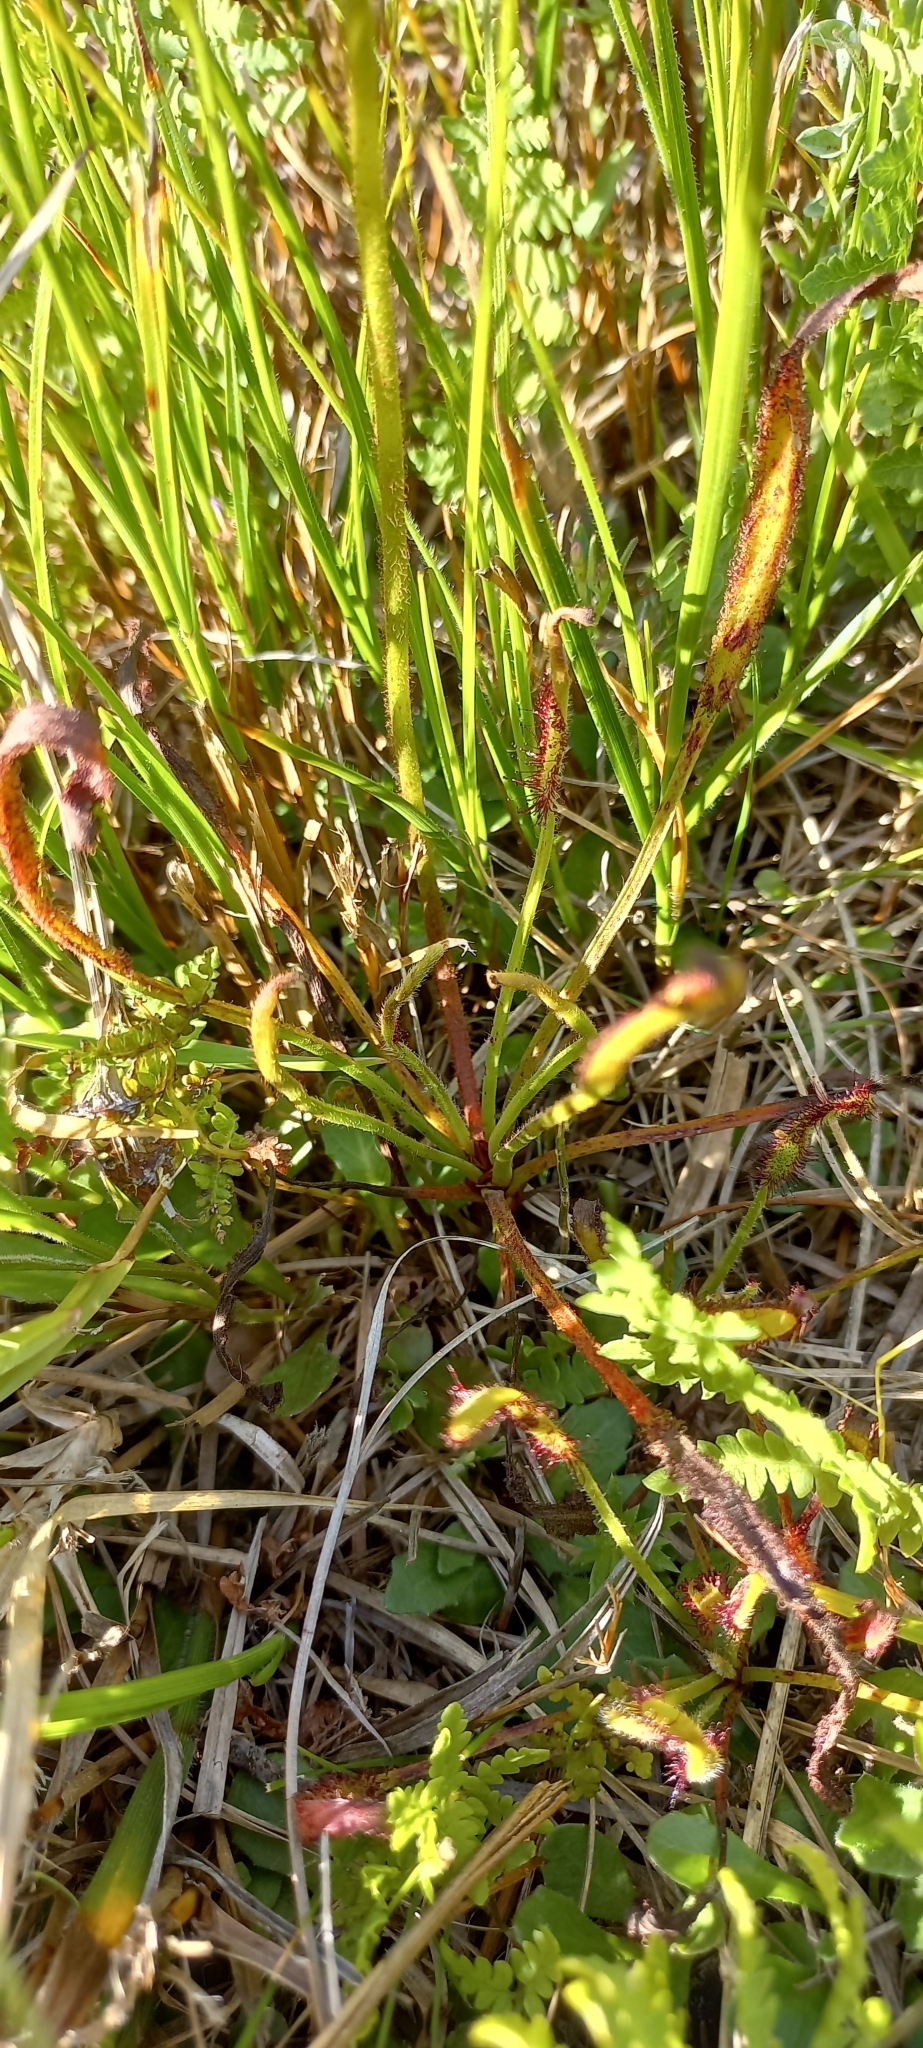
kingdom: Plantae
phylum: Tracheophyta
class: Magnoliopsida
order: Caryophyllales
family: Droseraceae
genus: Drosera
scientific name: Drosera capensis
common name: Cape sundew
